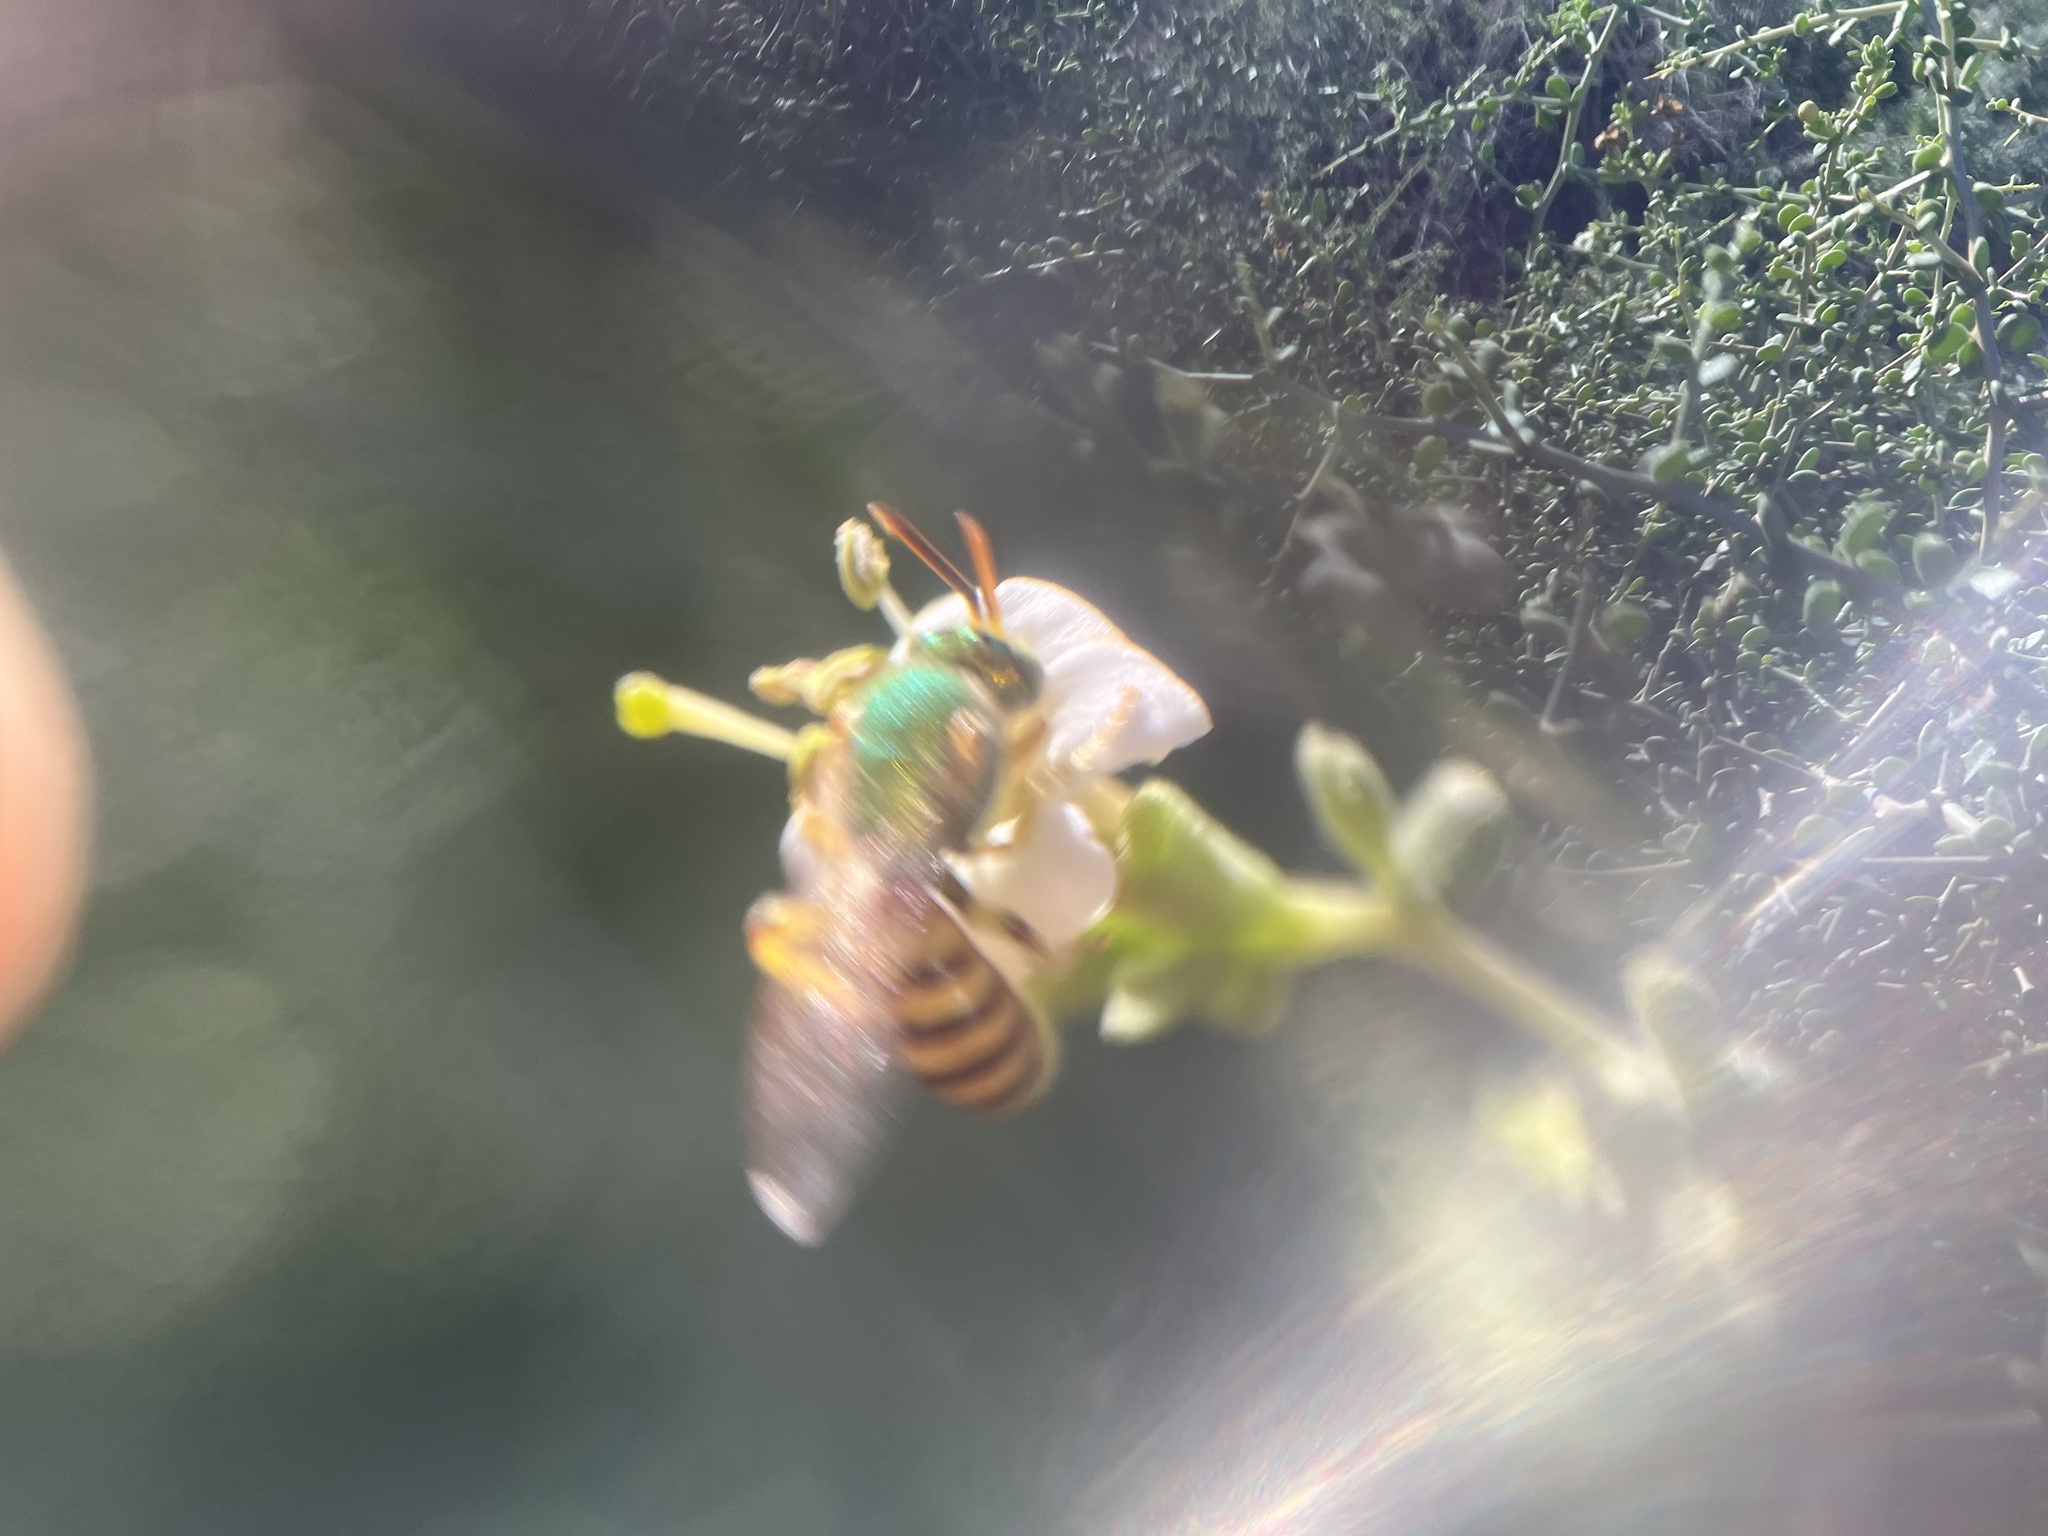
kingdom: Animalia
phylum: Arthropoda
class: Insecta
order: Hymenoptera
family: Halictidae
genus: Agapostemon
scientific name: Agapostemon melliventris
